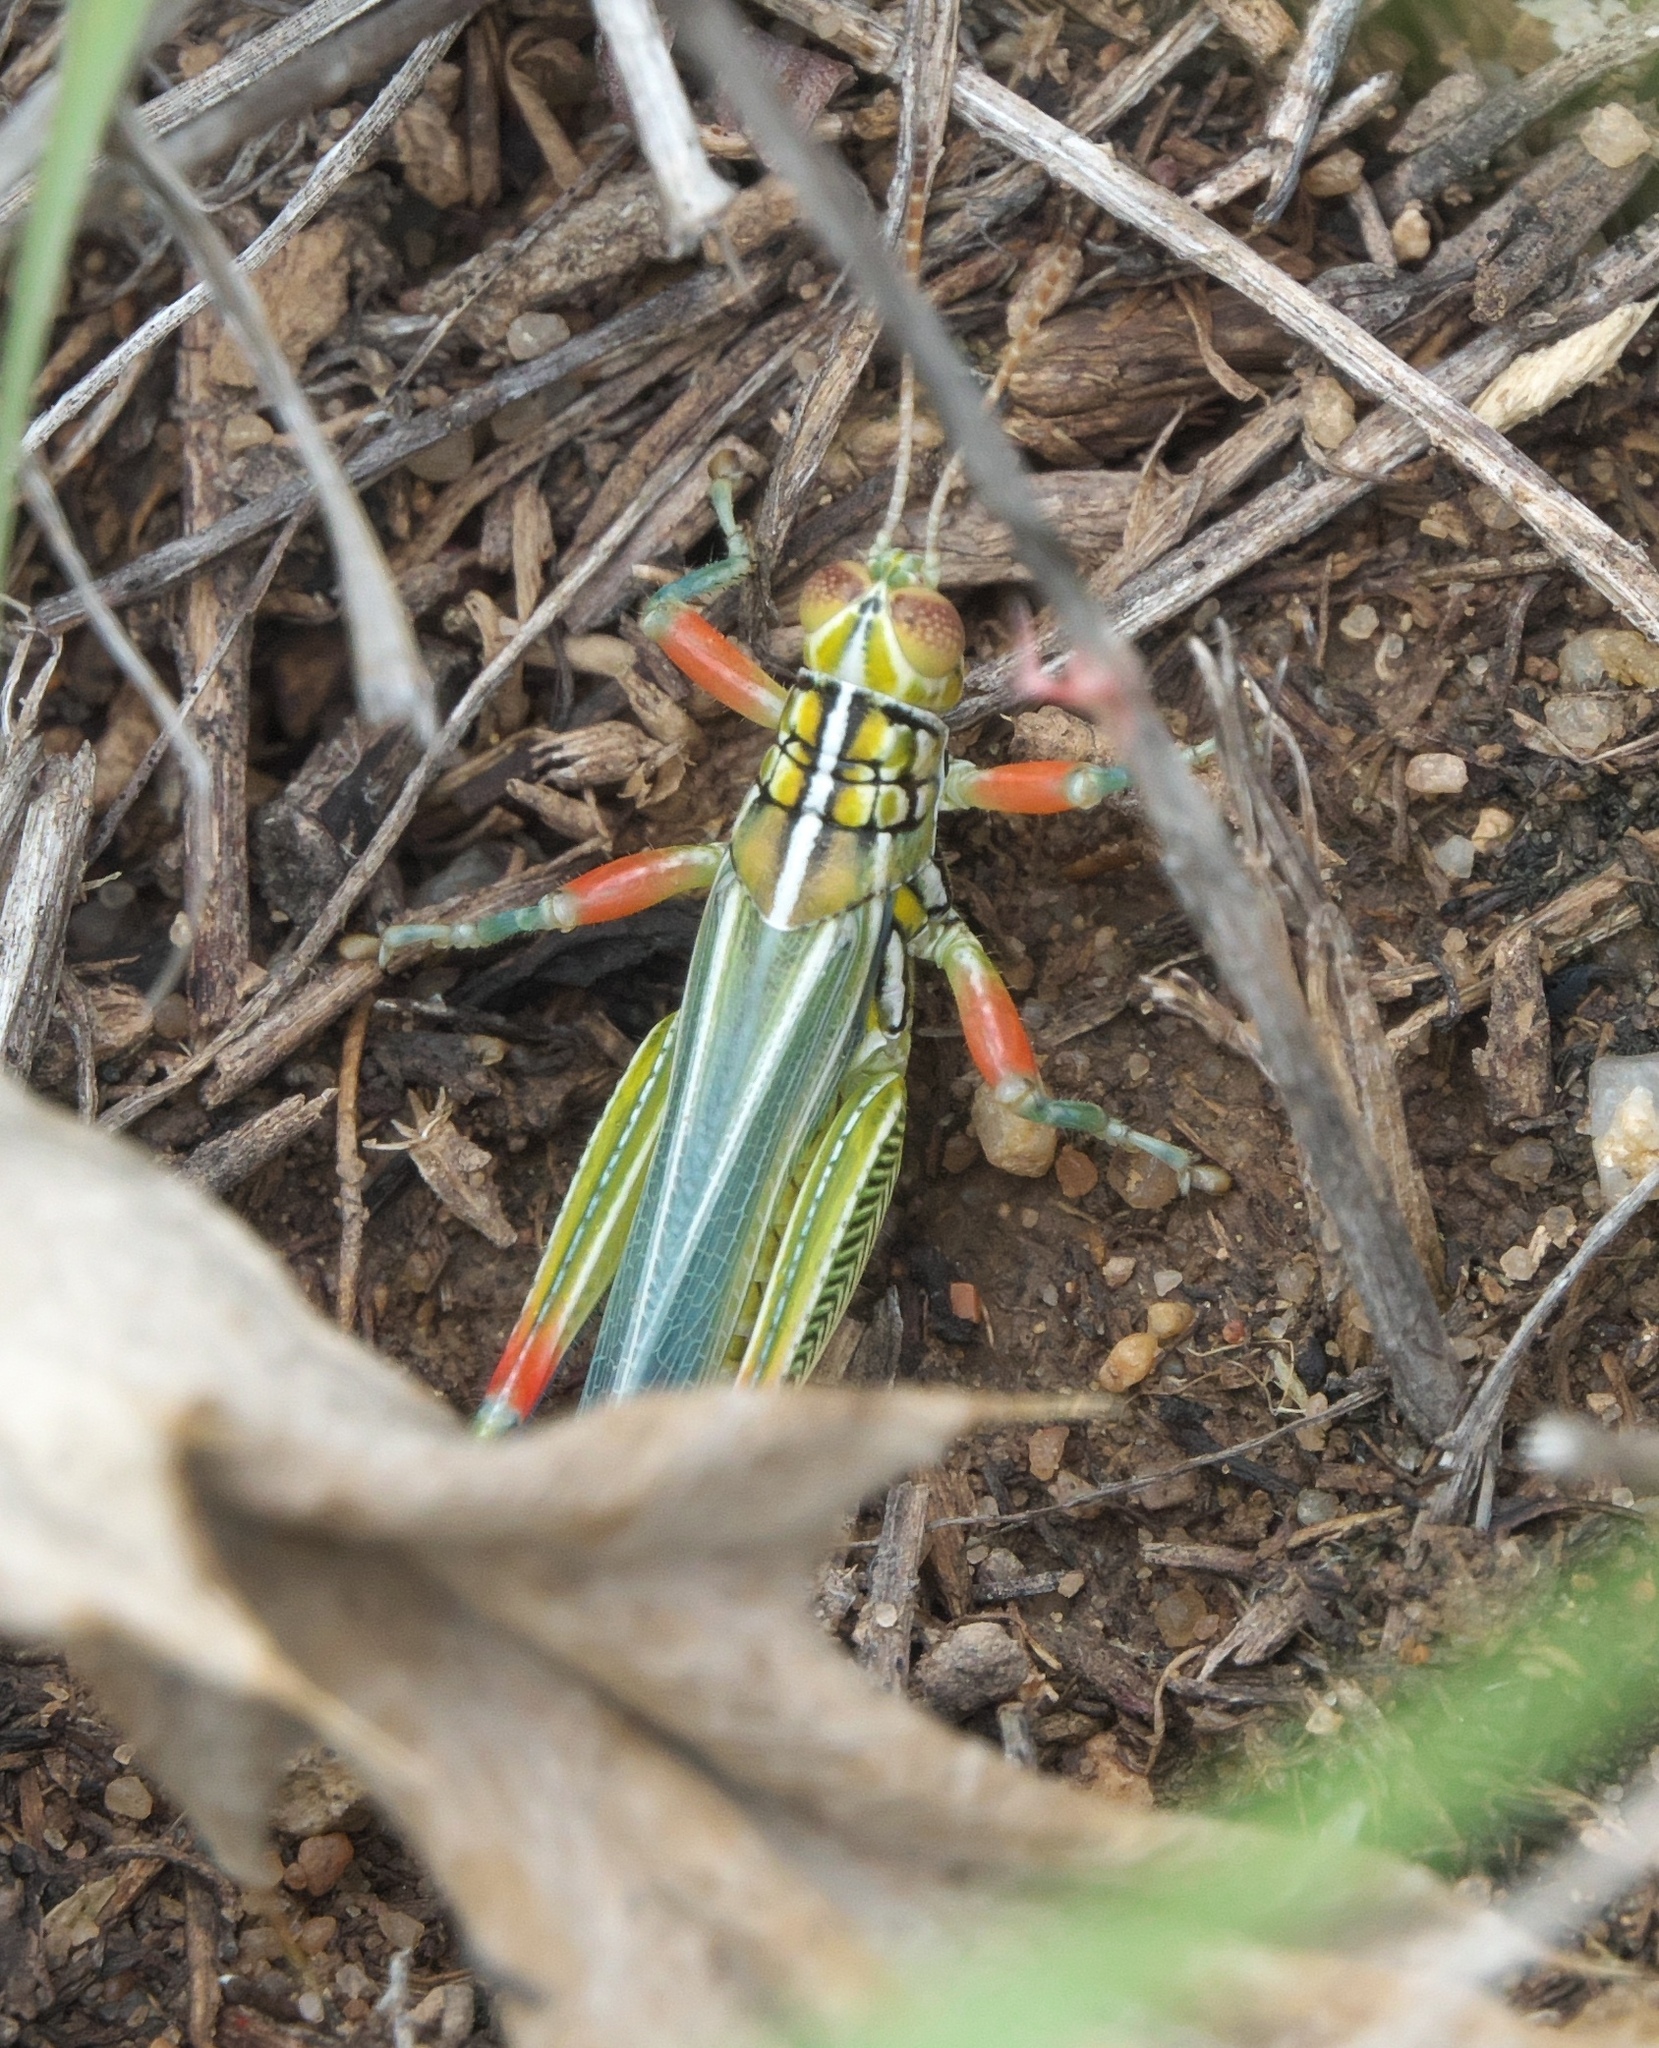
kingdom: Animalia
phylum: Arthropoda
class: Insecta
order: Orthoptera
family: Acrididae
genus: Hesperotettix
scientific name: Hesperotettix viridis
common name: Meadow purple-striped grasshopper
